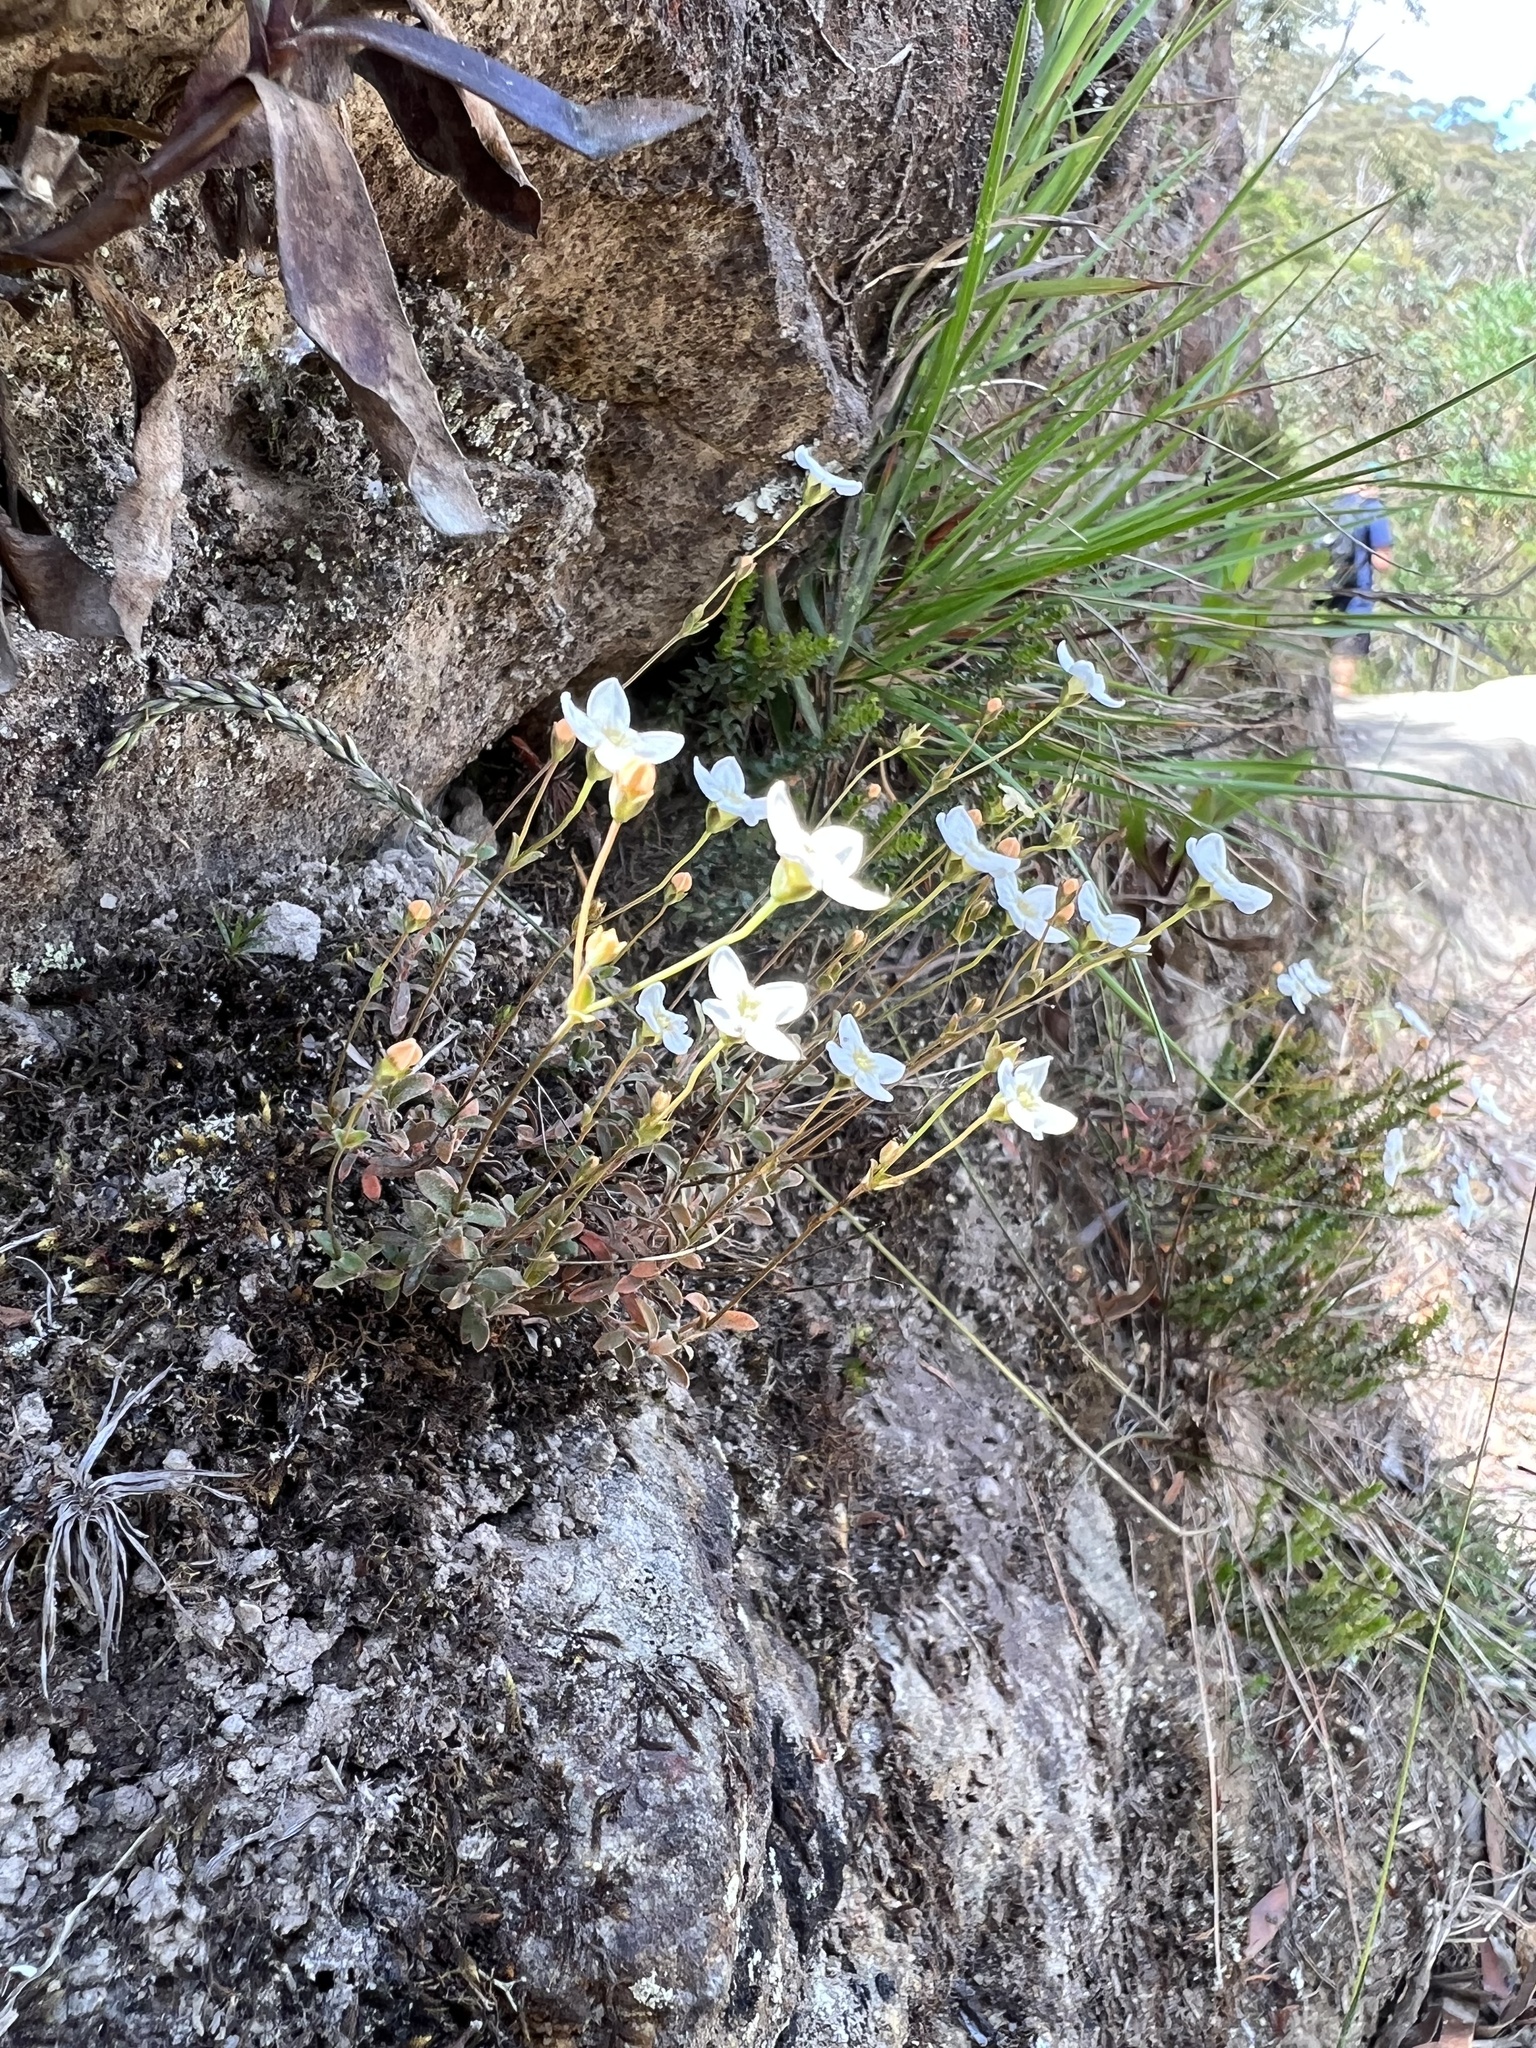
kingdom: Plantae
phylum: Tracheophyta
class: Magnoliopsida
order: Gentianales
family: Loganiaceae
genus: Mitrasacme
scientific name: Mitrasacme polymorpha
